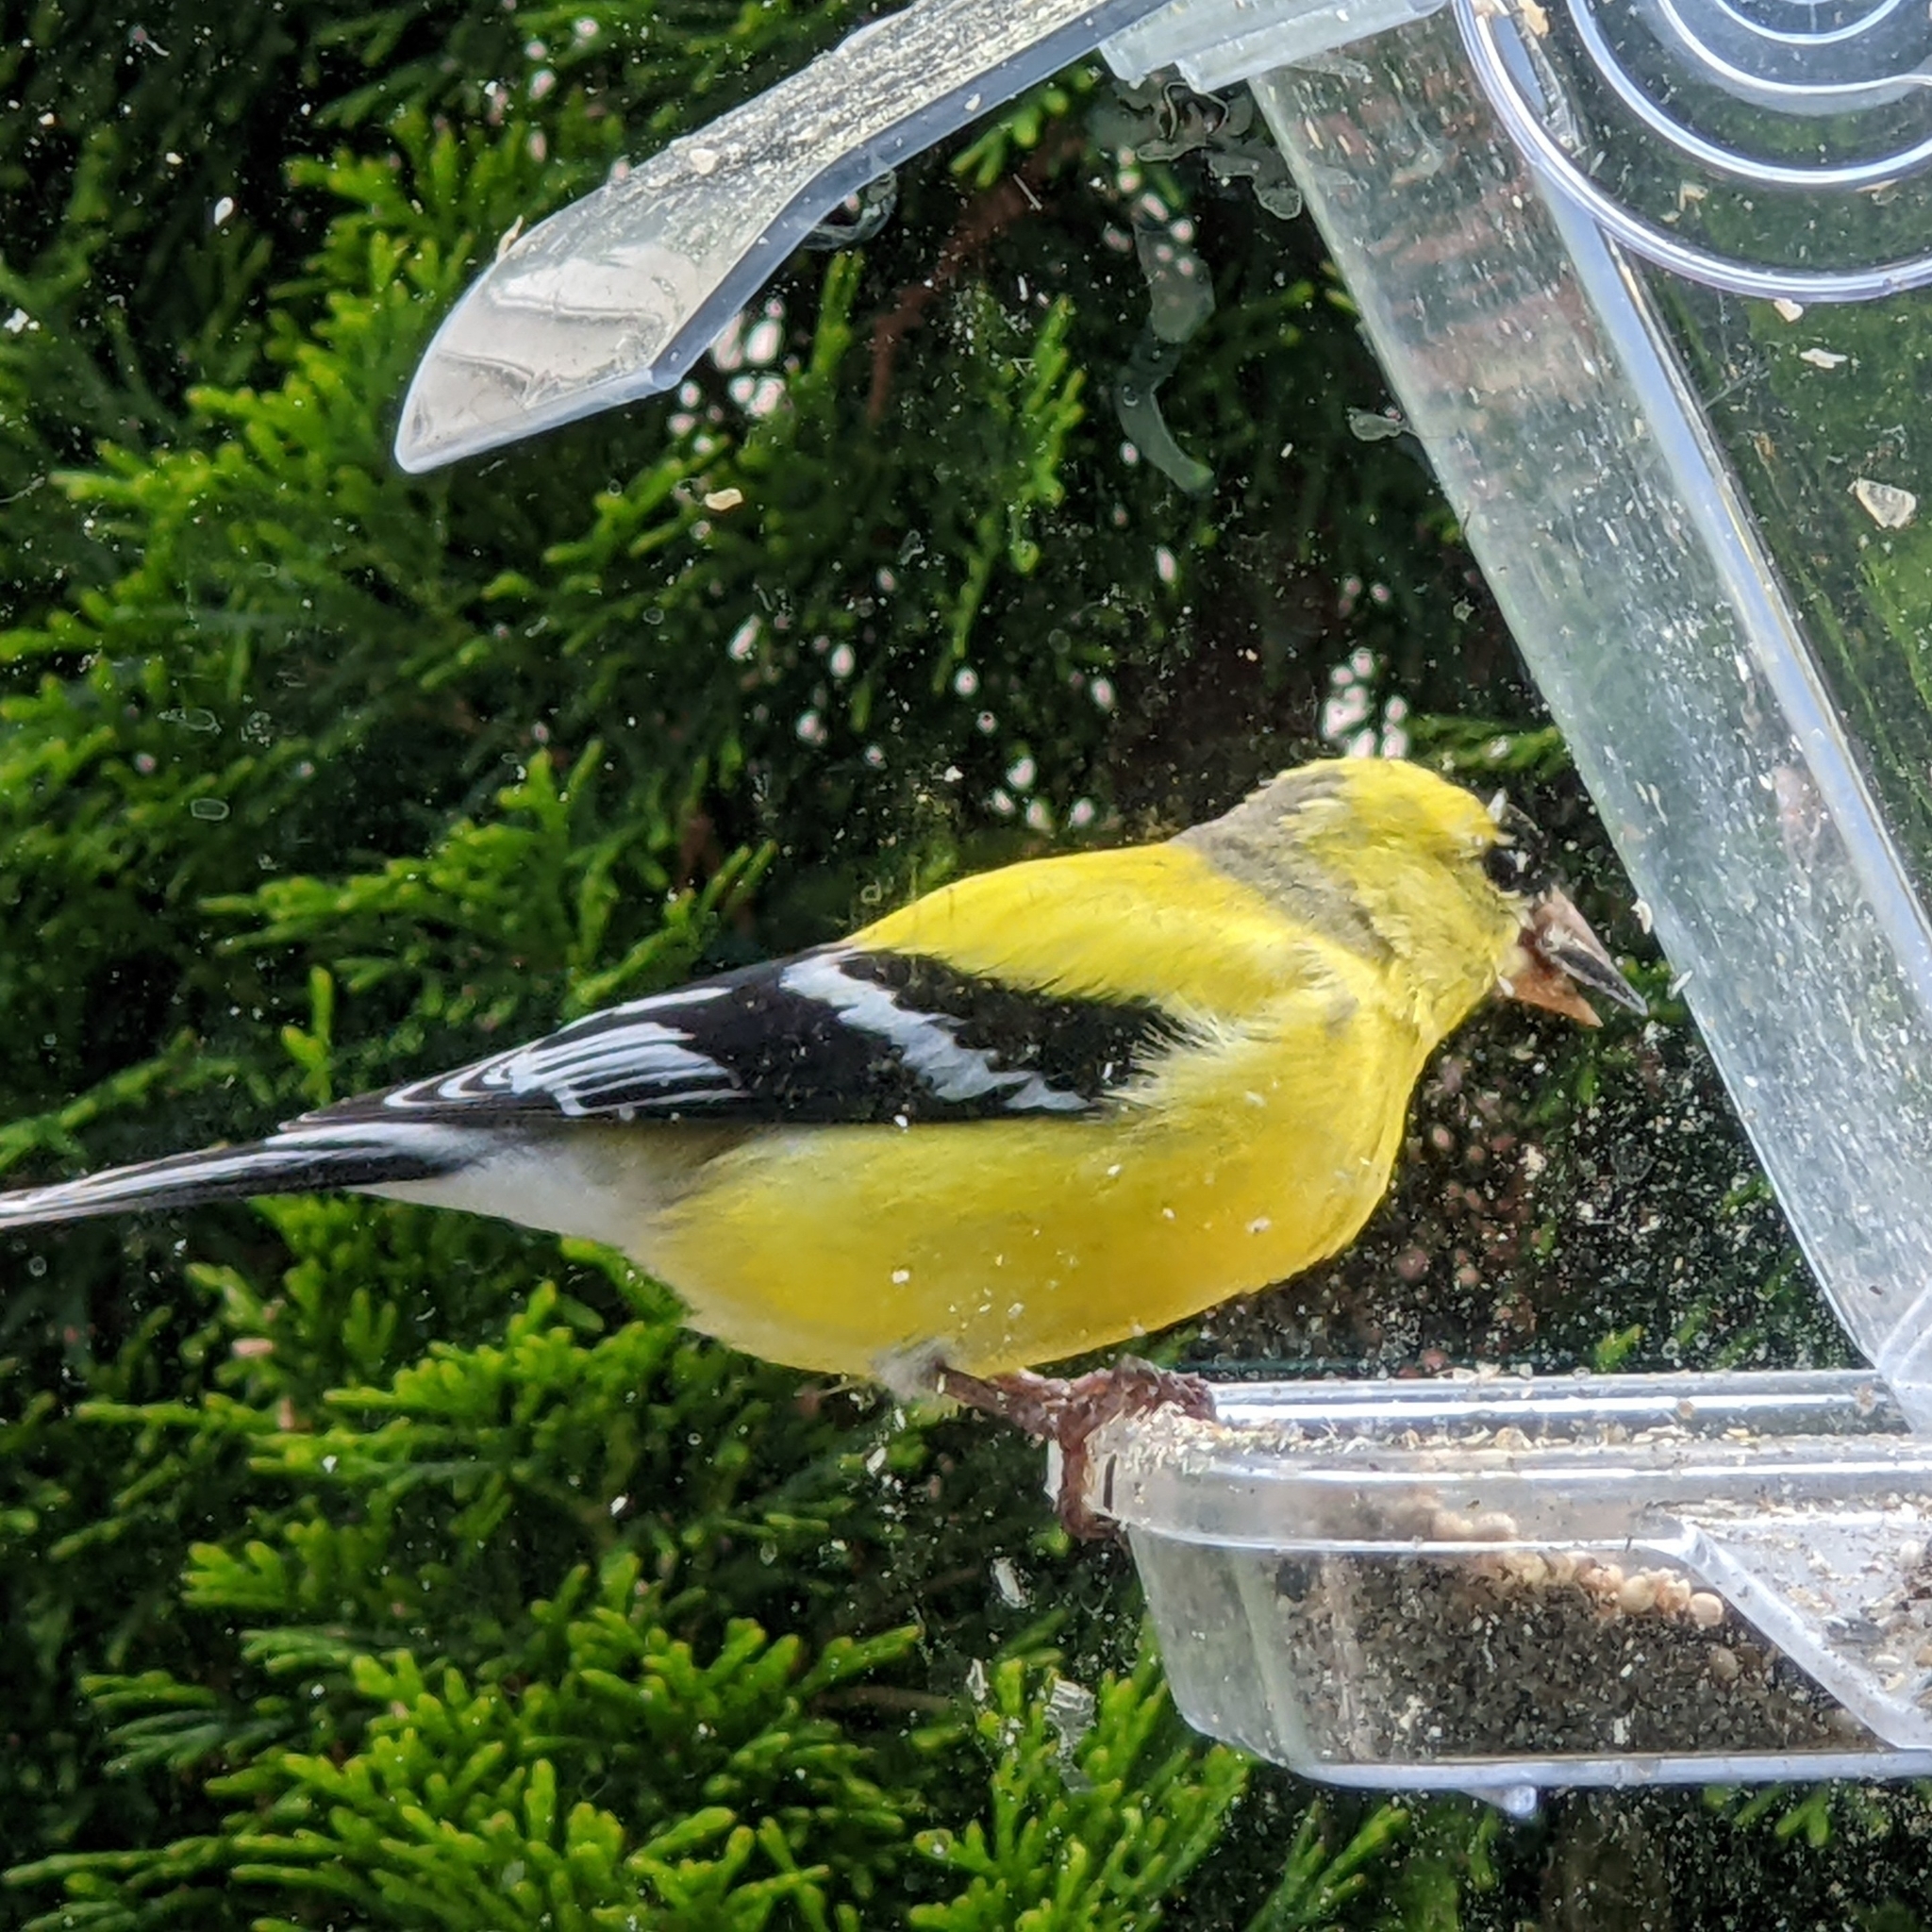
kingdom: Animalia
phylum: Chordata
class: Aves
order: Passeriformes
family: Fringillidae
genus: Spinus
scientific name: Spinus tristis
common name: American goldfinch
